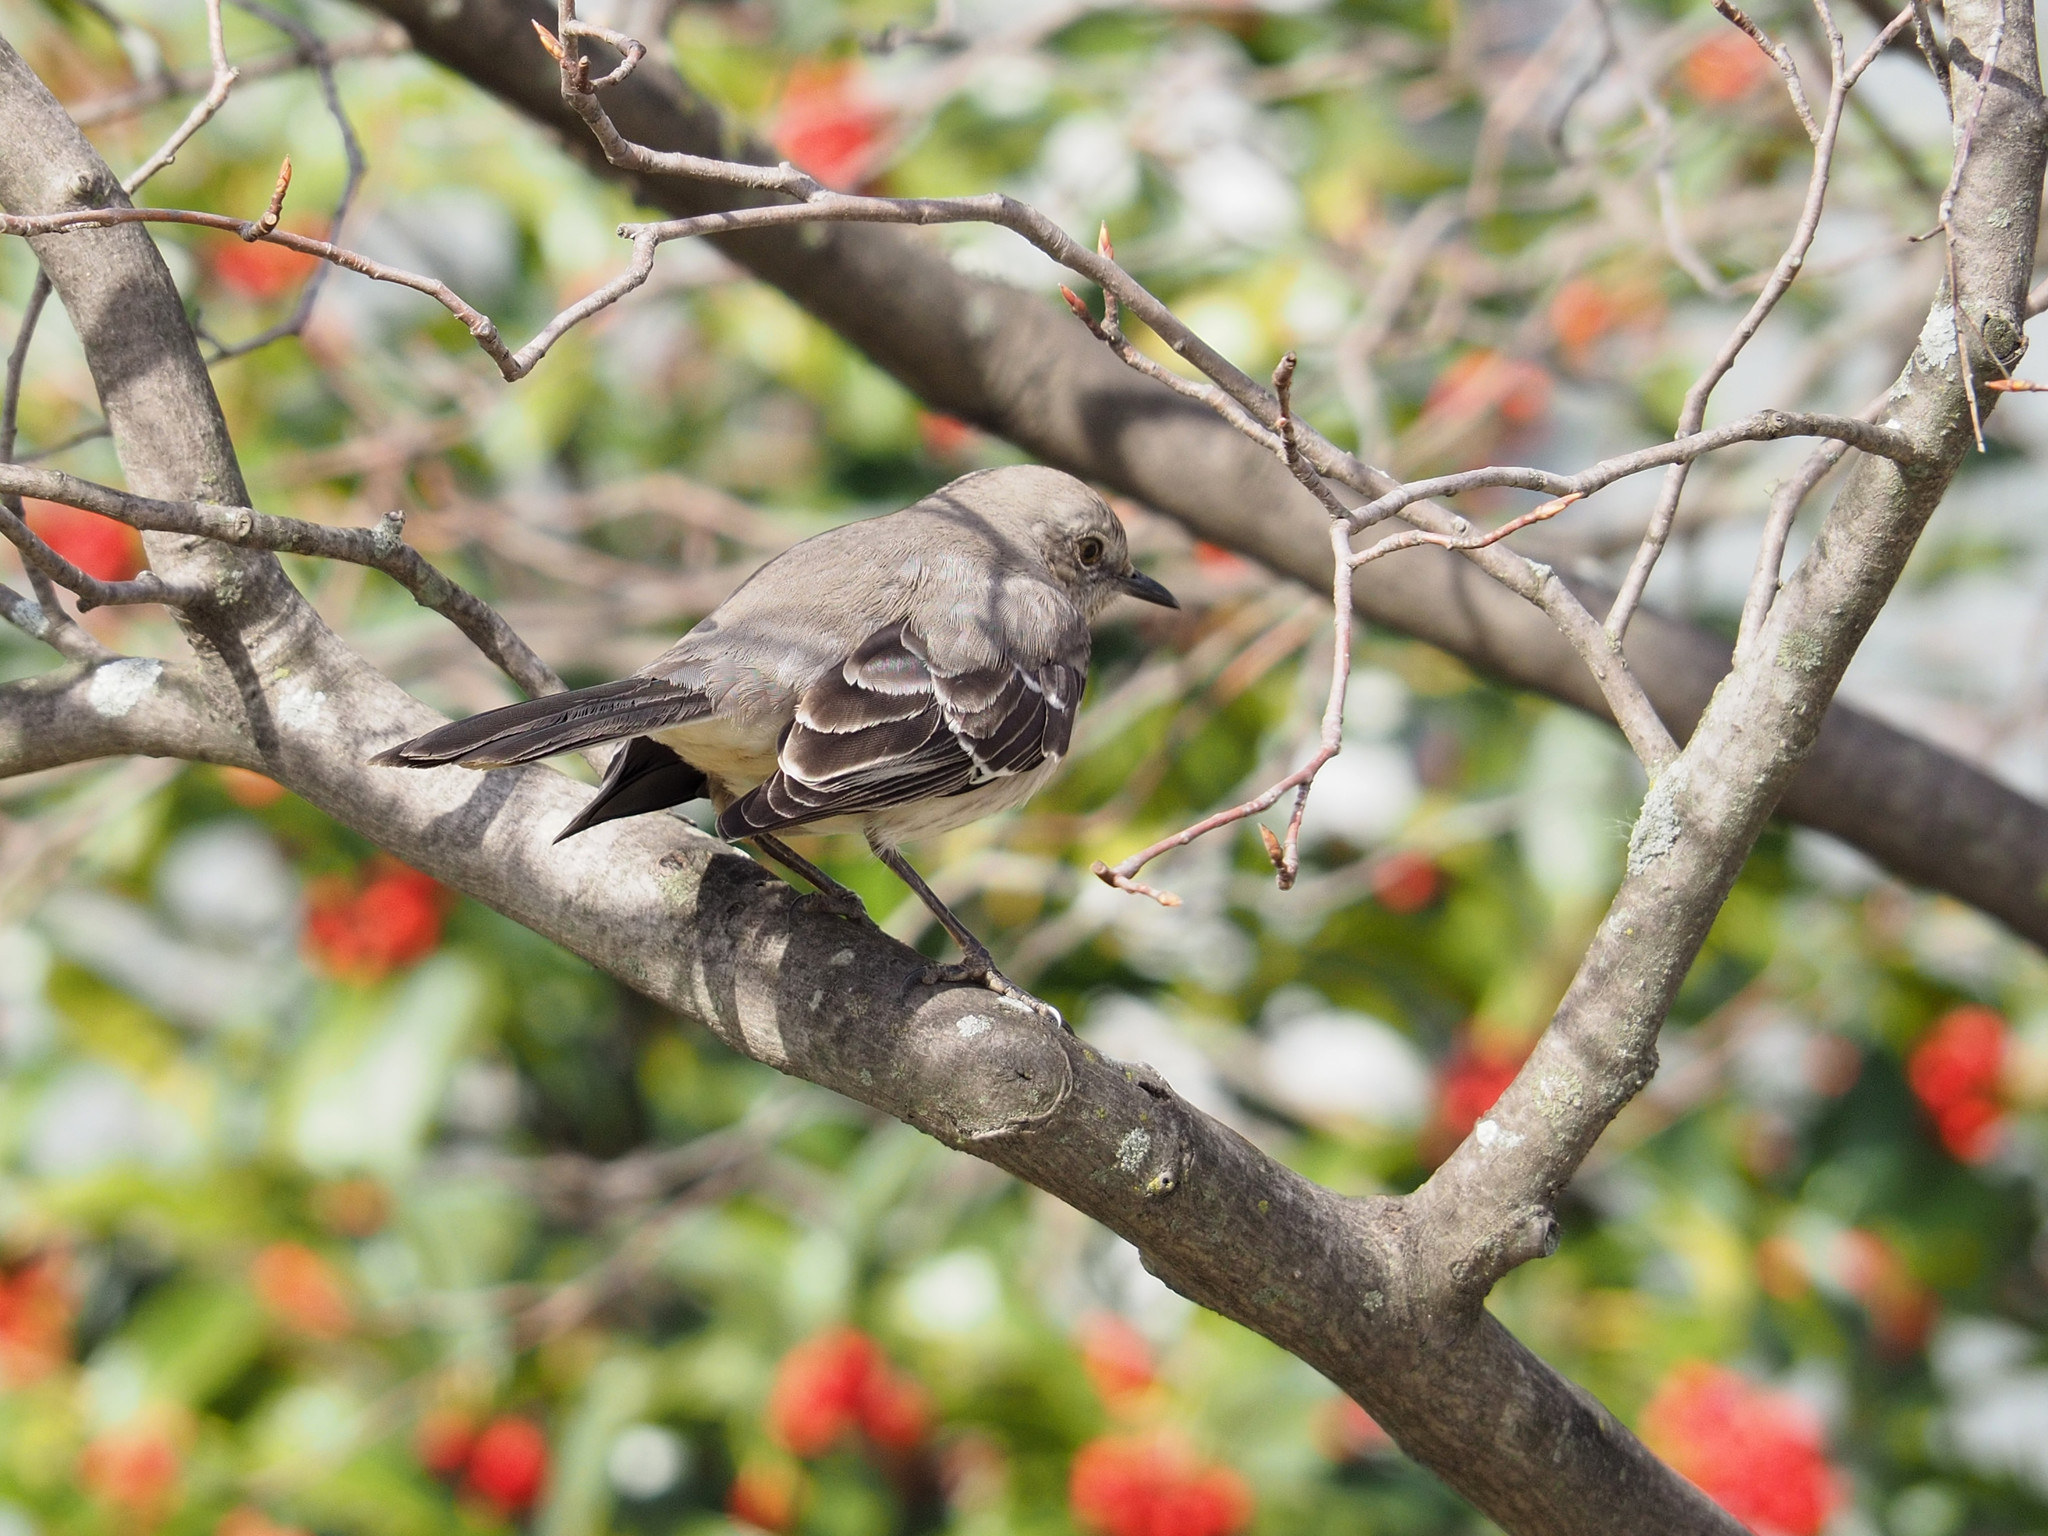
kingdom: Animalia
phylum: Chordata
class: Aves
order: Passeriformes
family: Mimidae
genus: Mimus
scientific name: Mimus polyglottos
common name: Northern mockingbird
